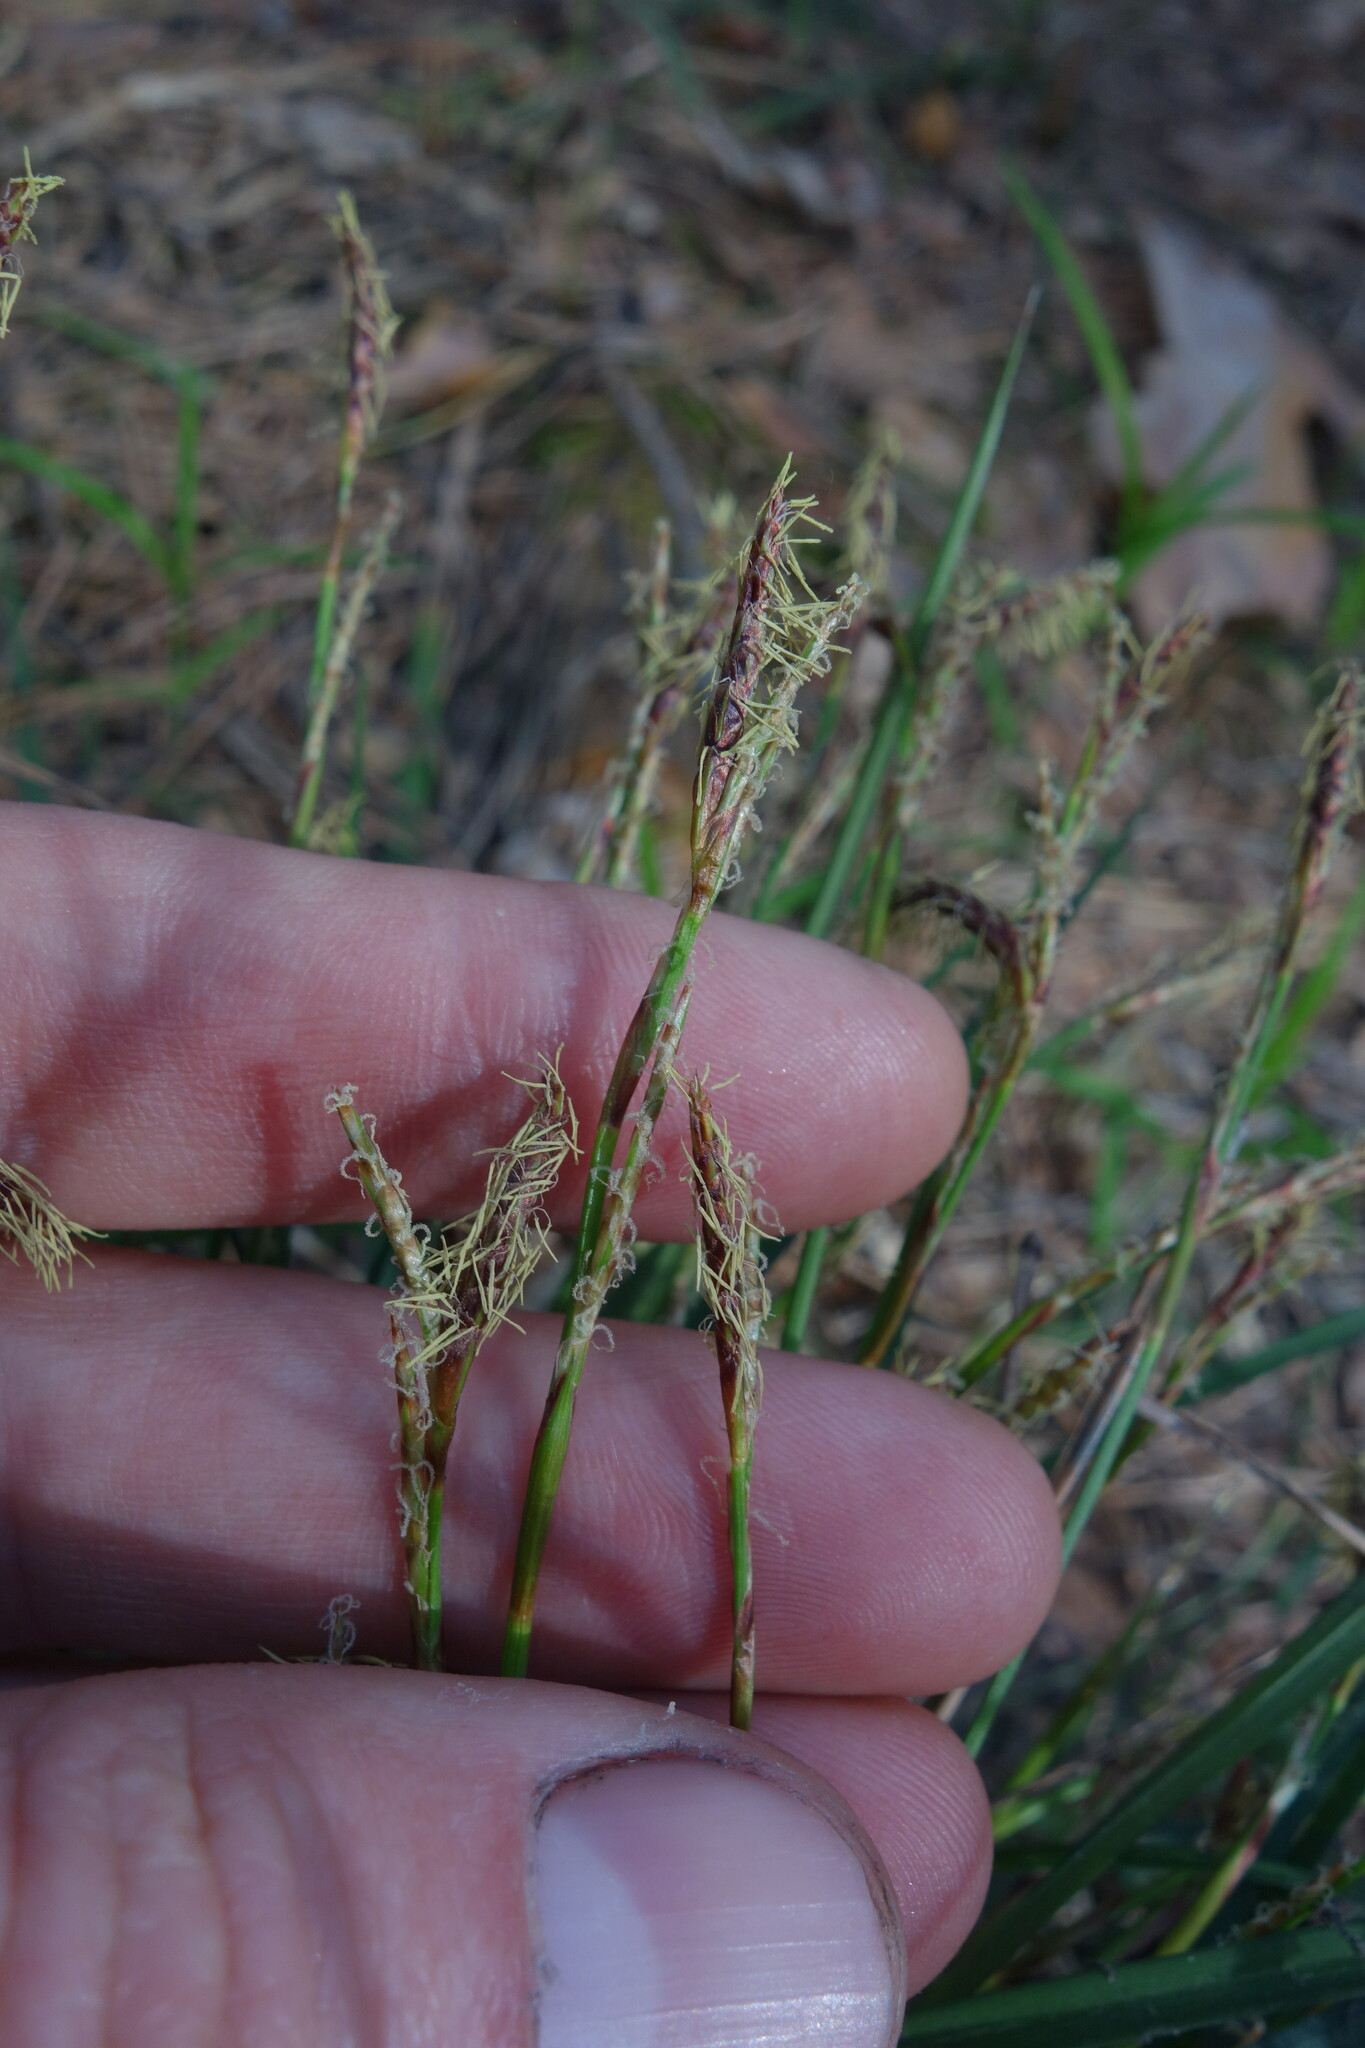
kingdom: Plantae
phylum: Tracheophyta
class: Liliopsida
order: Poales
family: Cyperaceae
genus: Carex
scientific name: Carex digitata
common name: Fingered sedge
